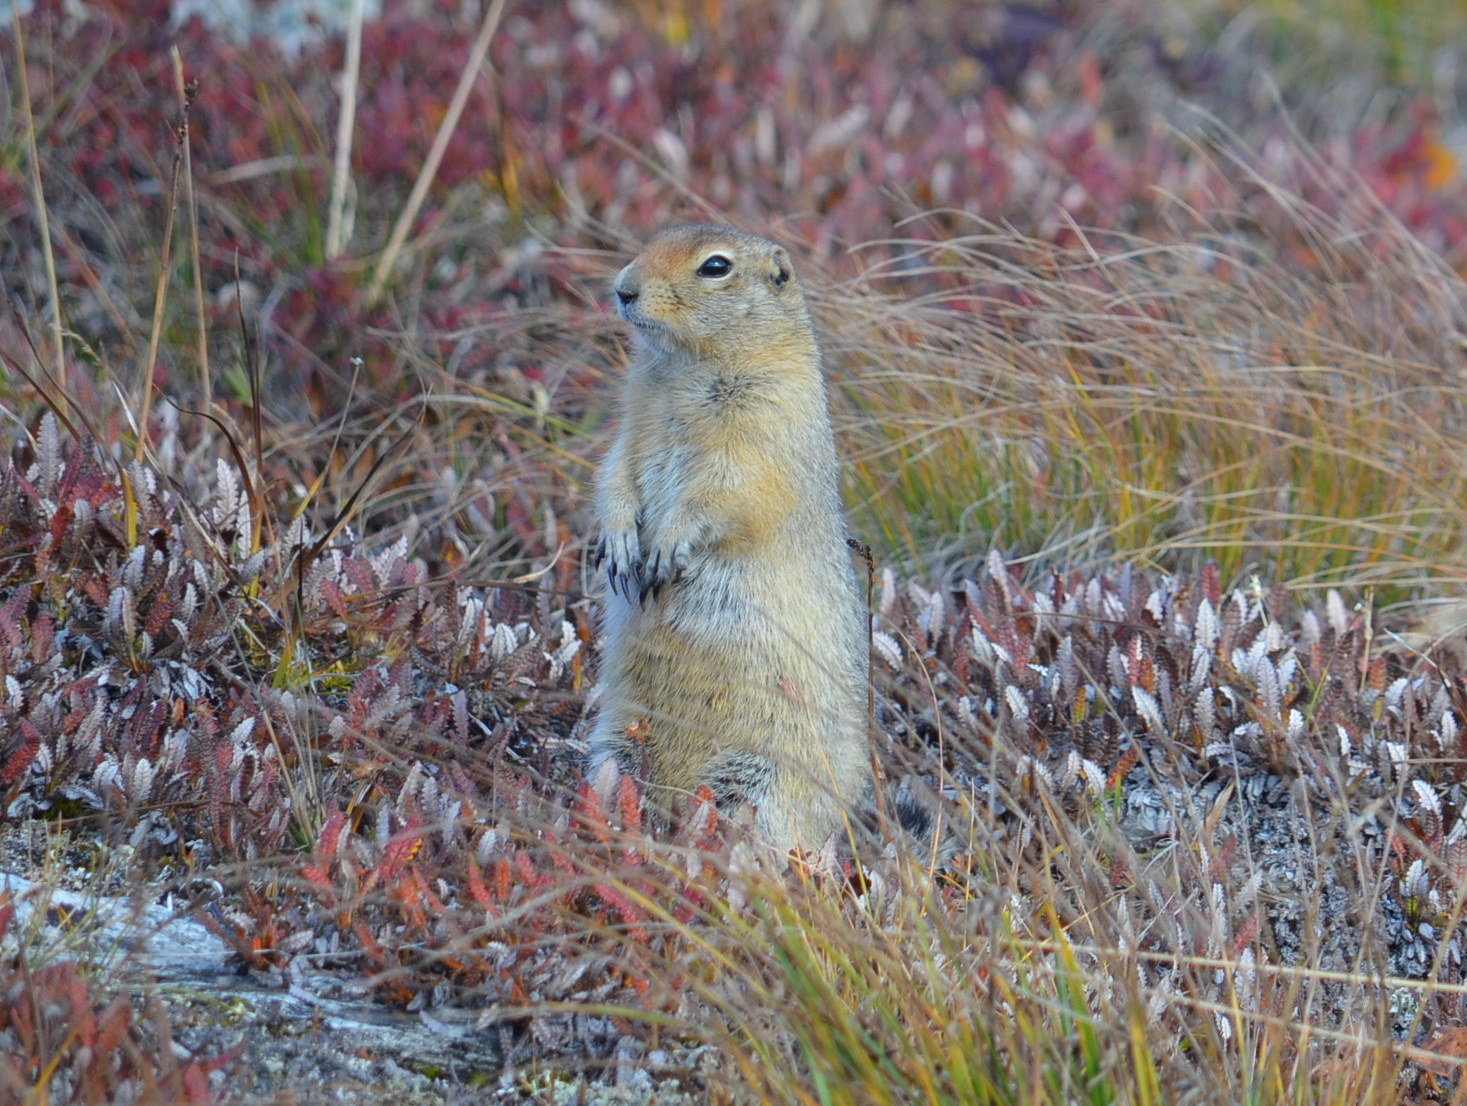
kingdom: Animalia
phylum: Chordata
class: Mammalia
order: Rodentia
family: Sciuridae
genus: Urocitellus
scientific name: Urocitellus parryii
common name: Arctic ground squirrel
